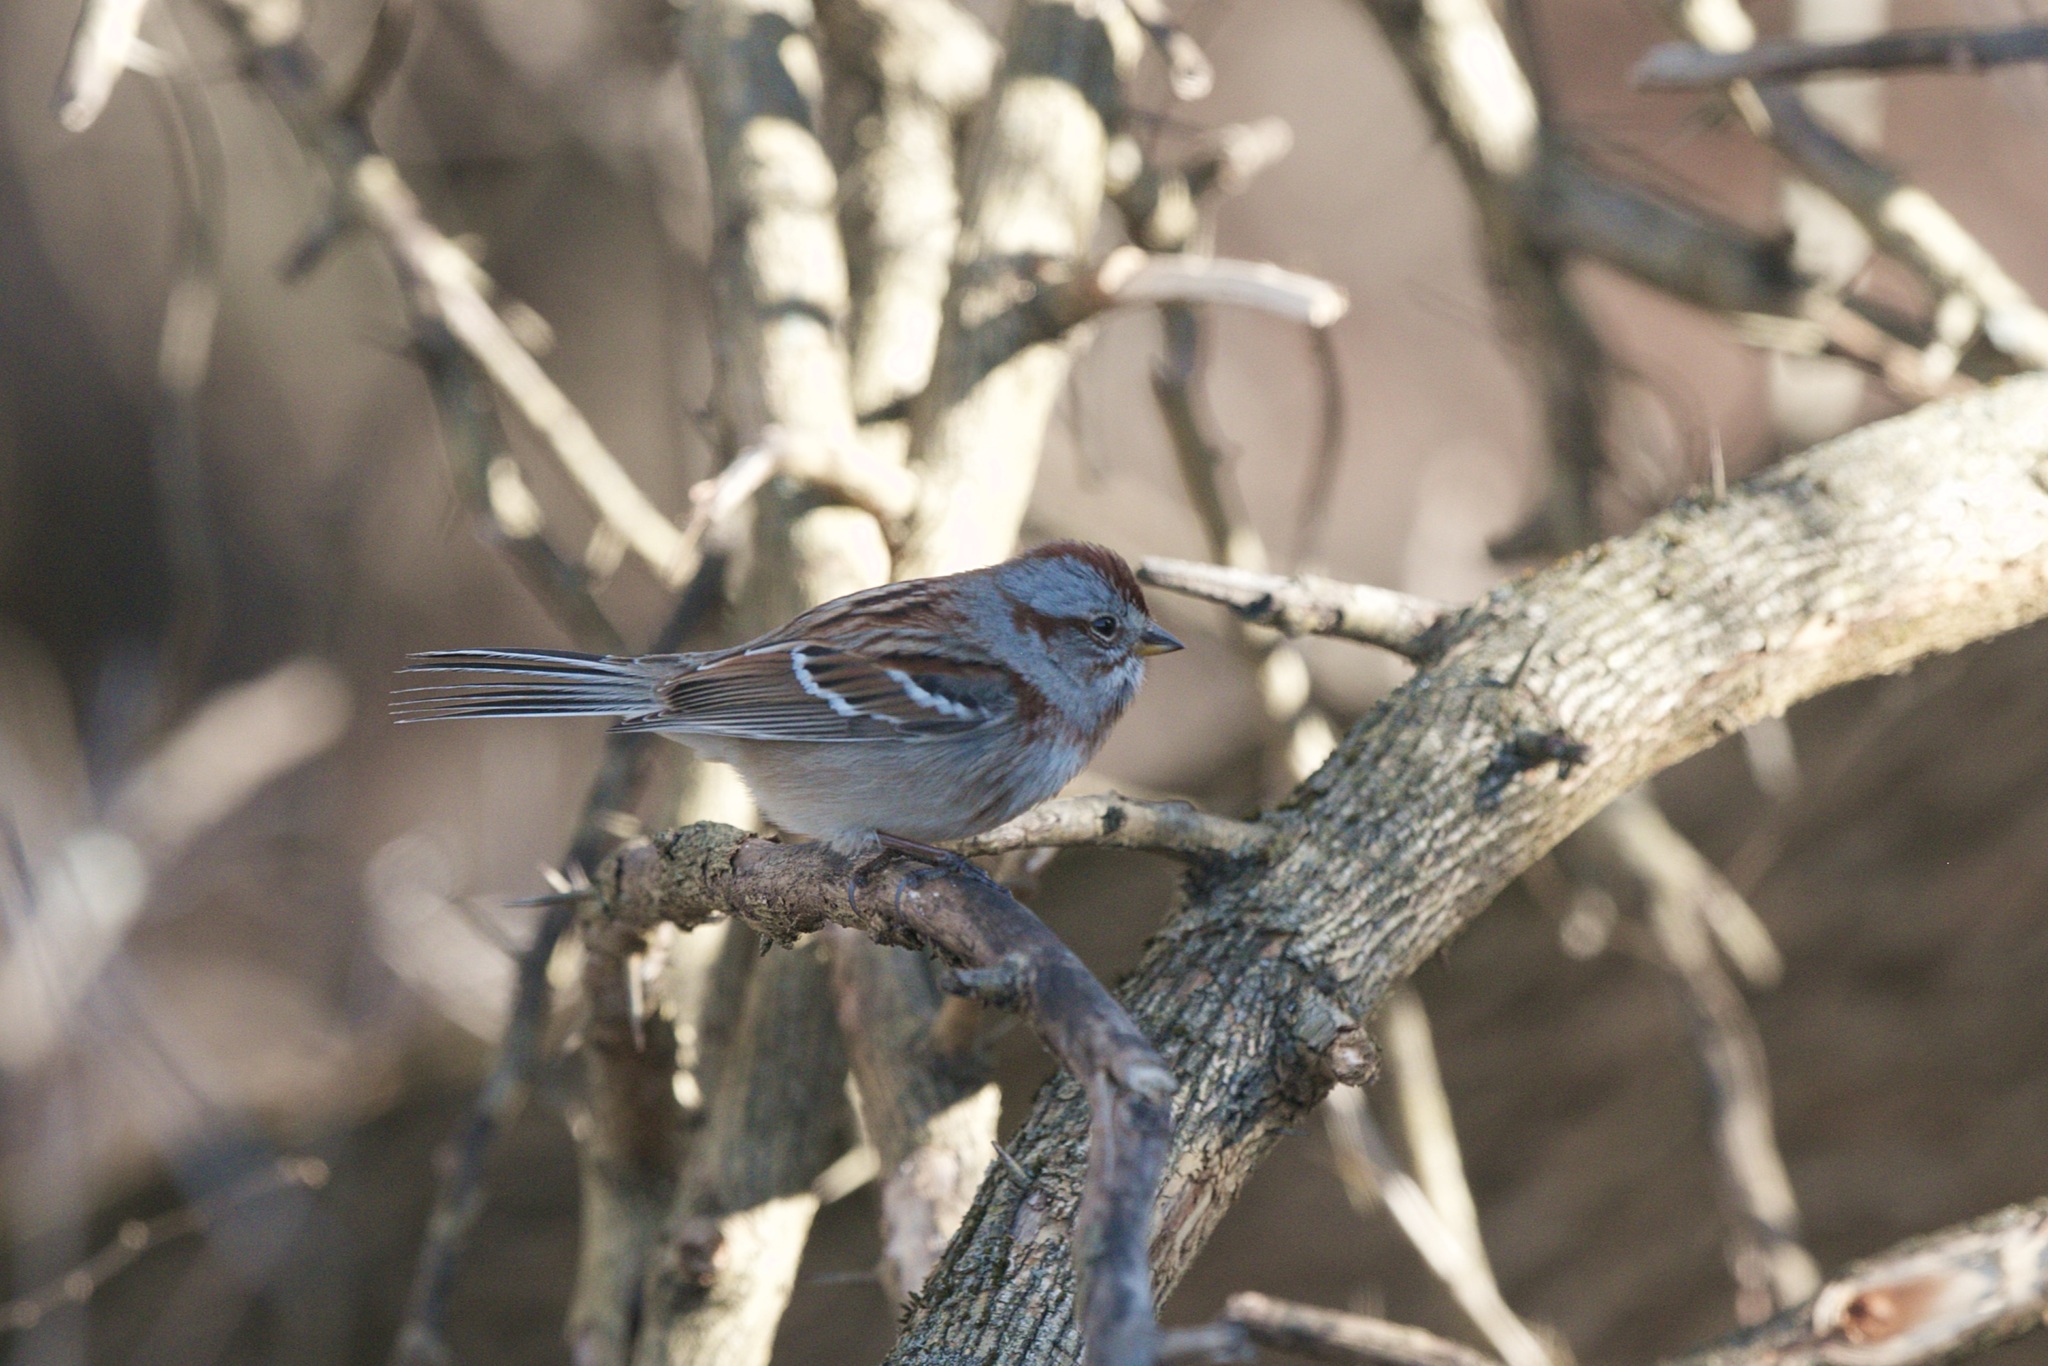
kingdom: Animalia
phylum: Chordata
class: Aves
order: Passeriformes
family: Passerellidae
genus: Spizelloides
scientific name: Spizelloides arborea
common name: American tree sparrow
